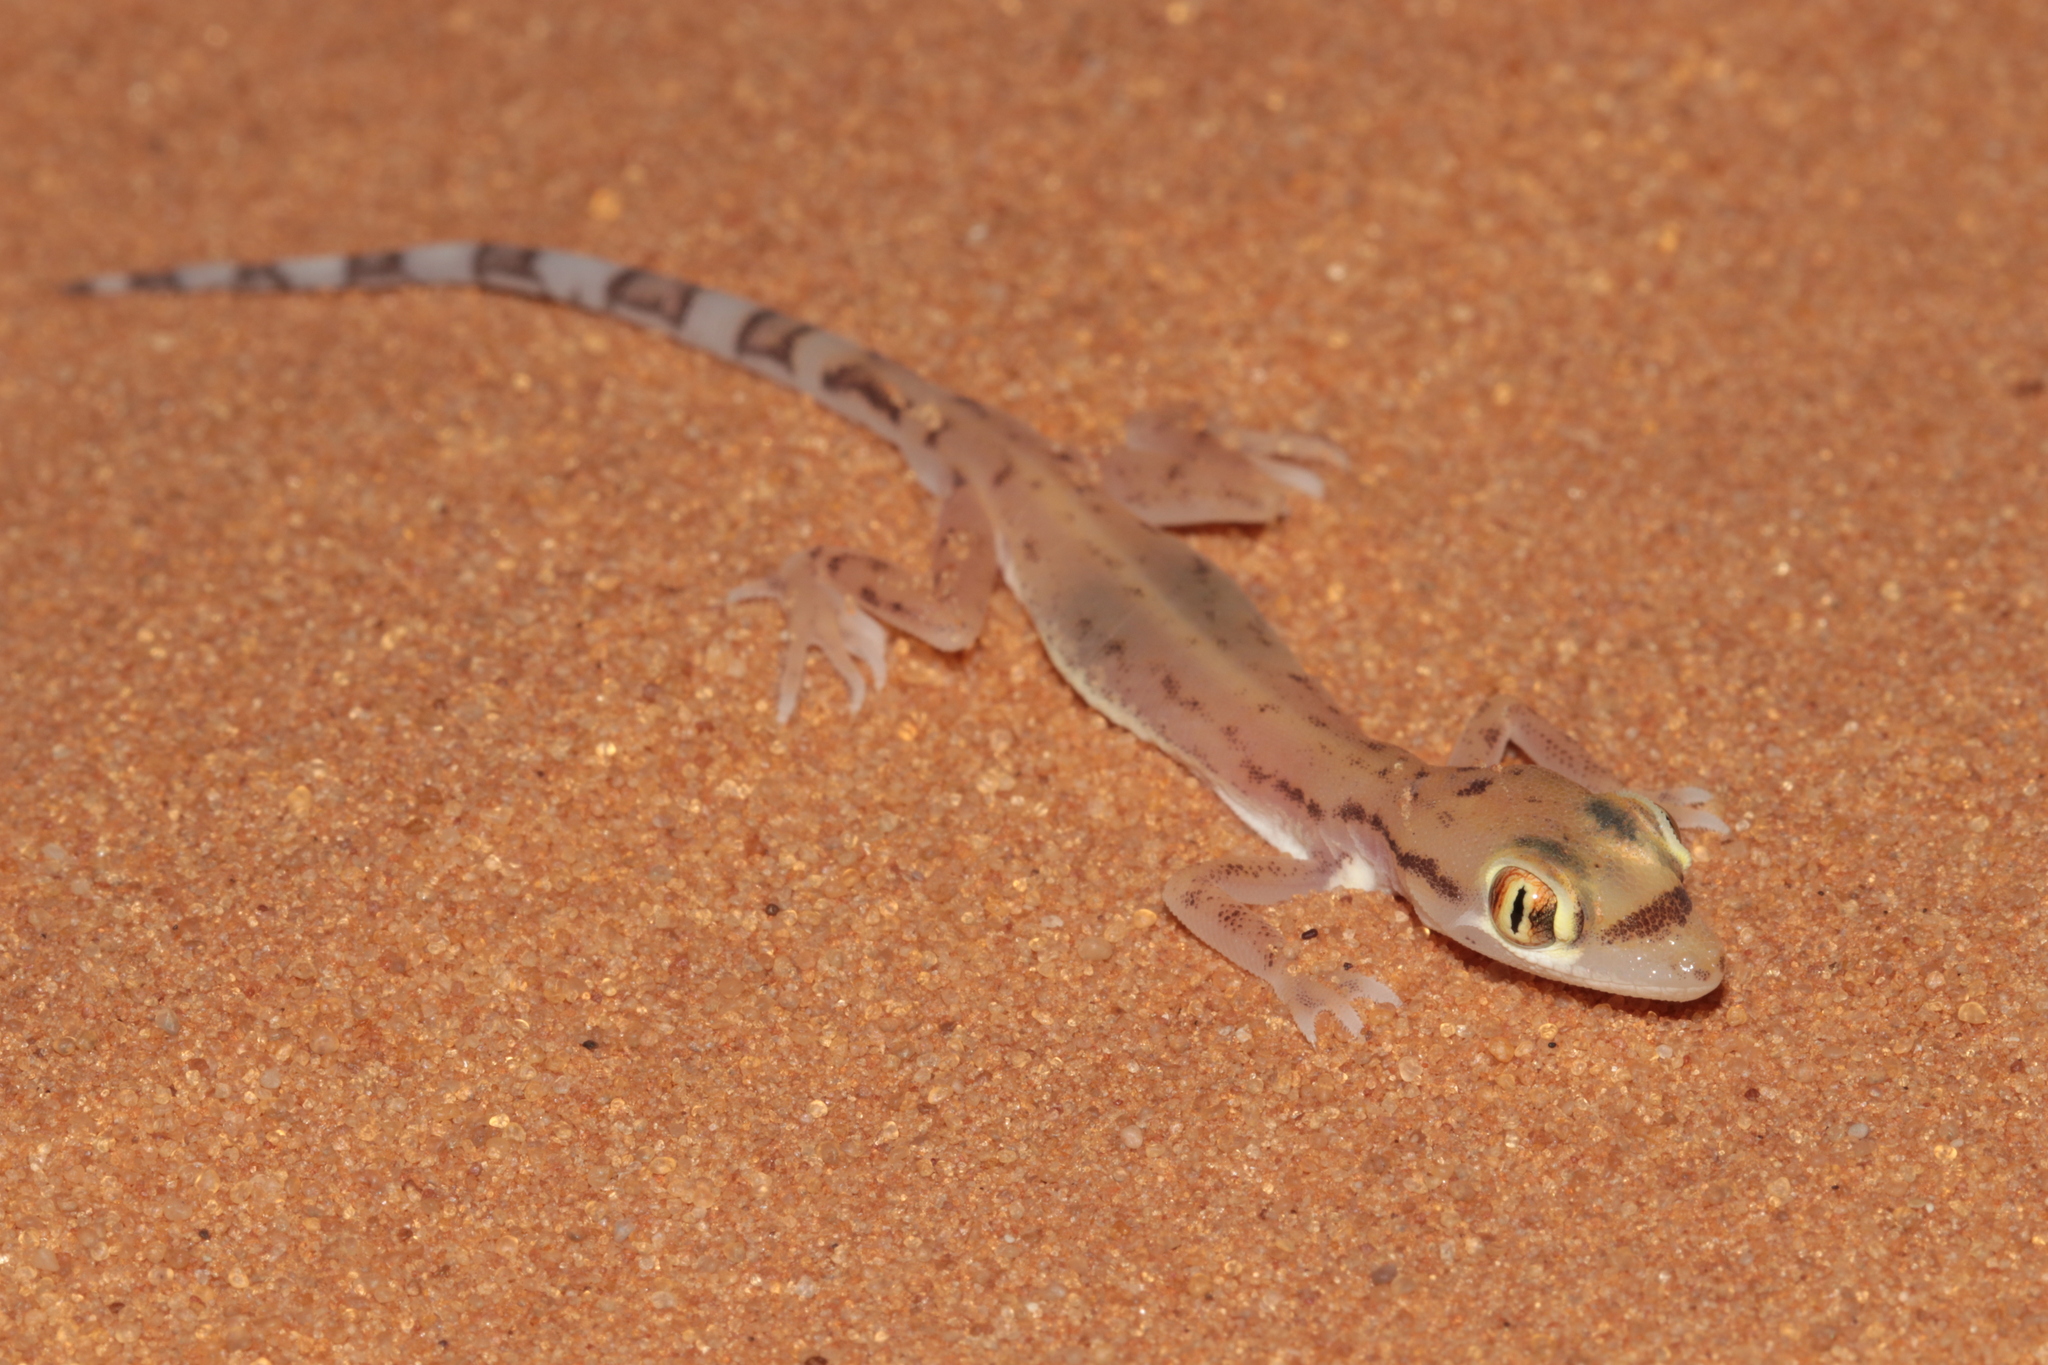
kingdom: Animalia
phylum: Chordata
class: Squamata
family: Gekkonidae
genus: Trigonodactylus
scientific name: Trigonodactylus arabicus
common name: Arabian sand gecko
